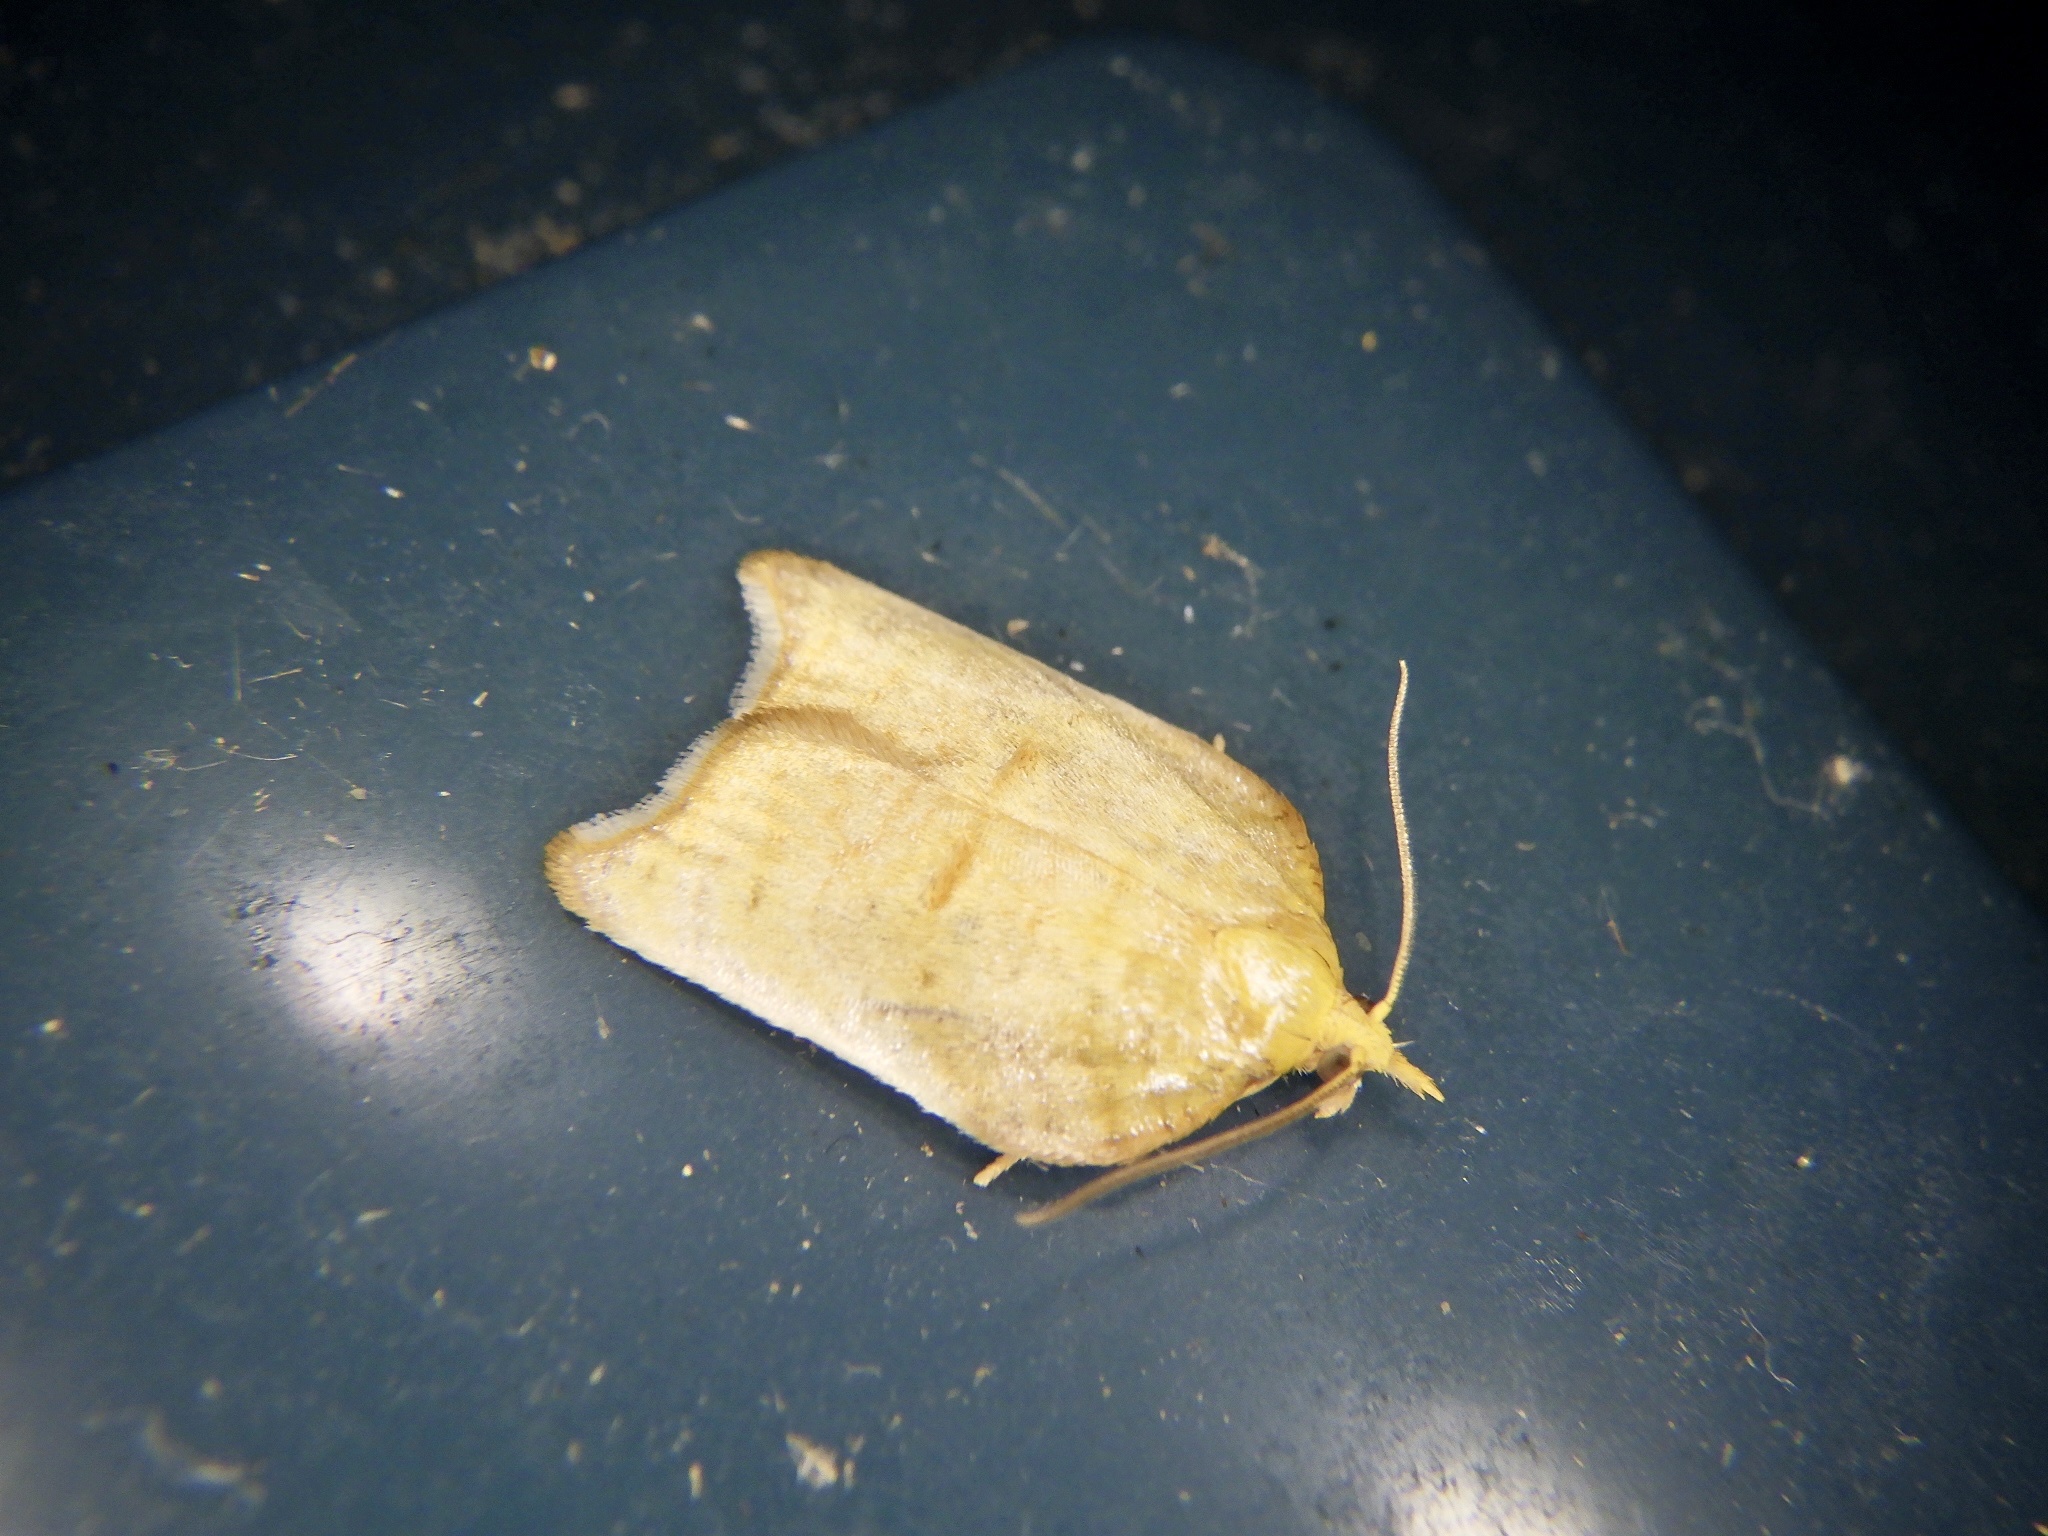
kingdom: Animalia
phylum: Arthropoda
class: Insecta
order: Lepidoptera
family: Tortricidae
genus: Acleris
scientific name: Acleris paradiseana
